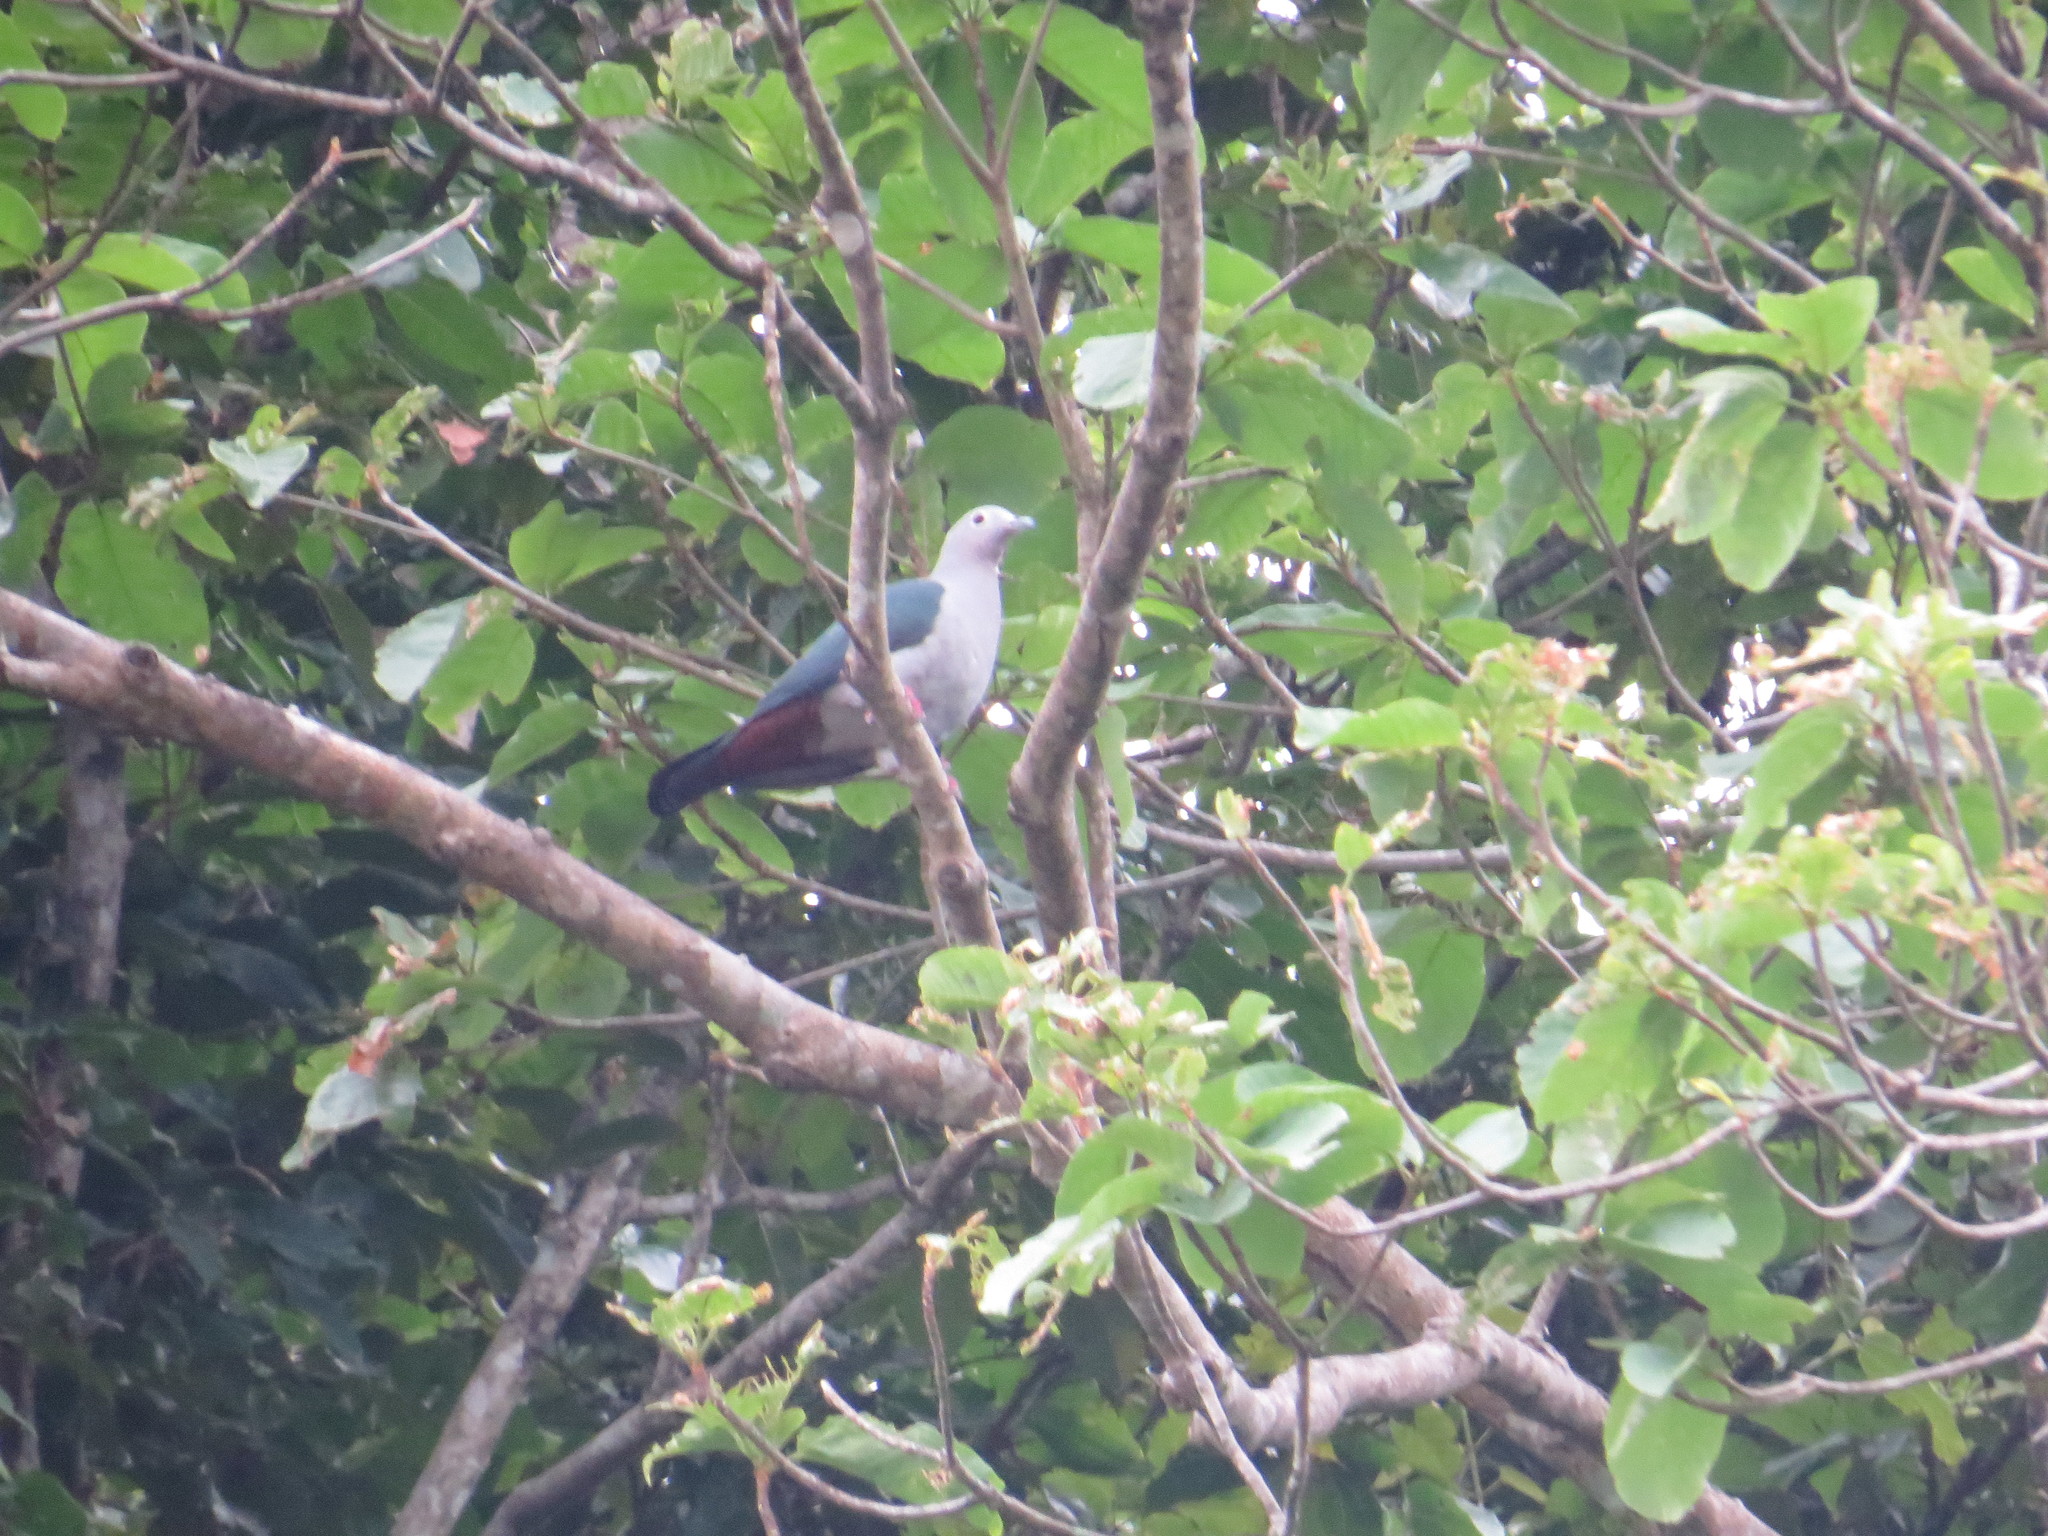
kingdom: Animalia
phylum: Chordata
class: Aves
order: Columbiformes
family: Columbidae
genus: Ducula
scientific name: Ducula pistrinaria
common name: Island imperial-pigeon
